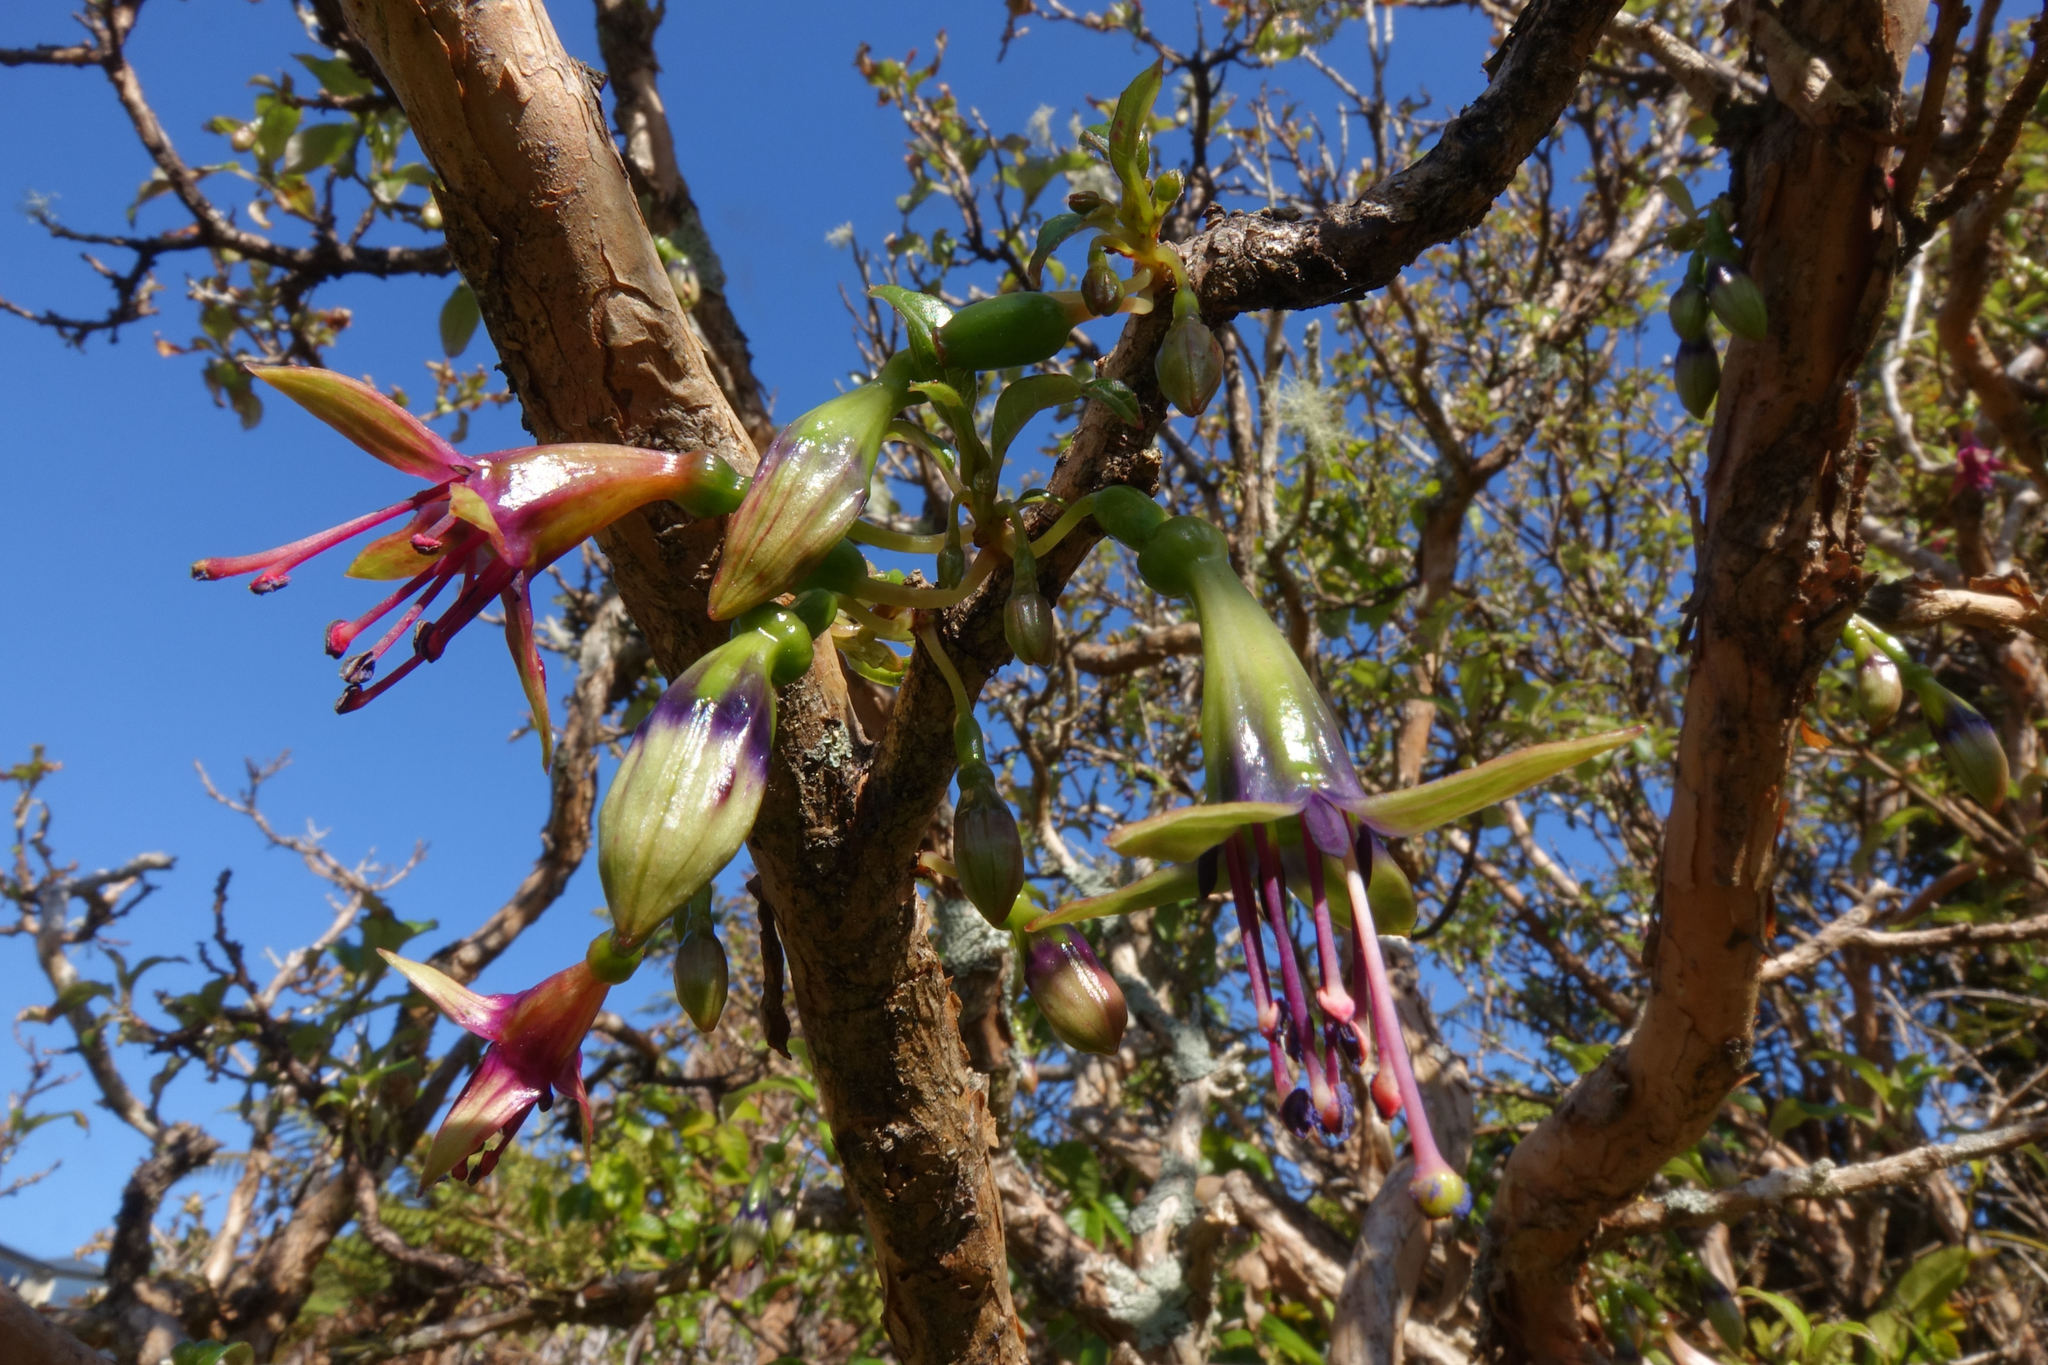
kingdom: Plantae
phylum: Tracheophyta
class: Magnoliopsida
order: Myrtales
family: Onagraceae
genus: Fuchsia
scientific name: Fuchsia excorticata
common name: Tree fuchsia
